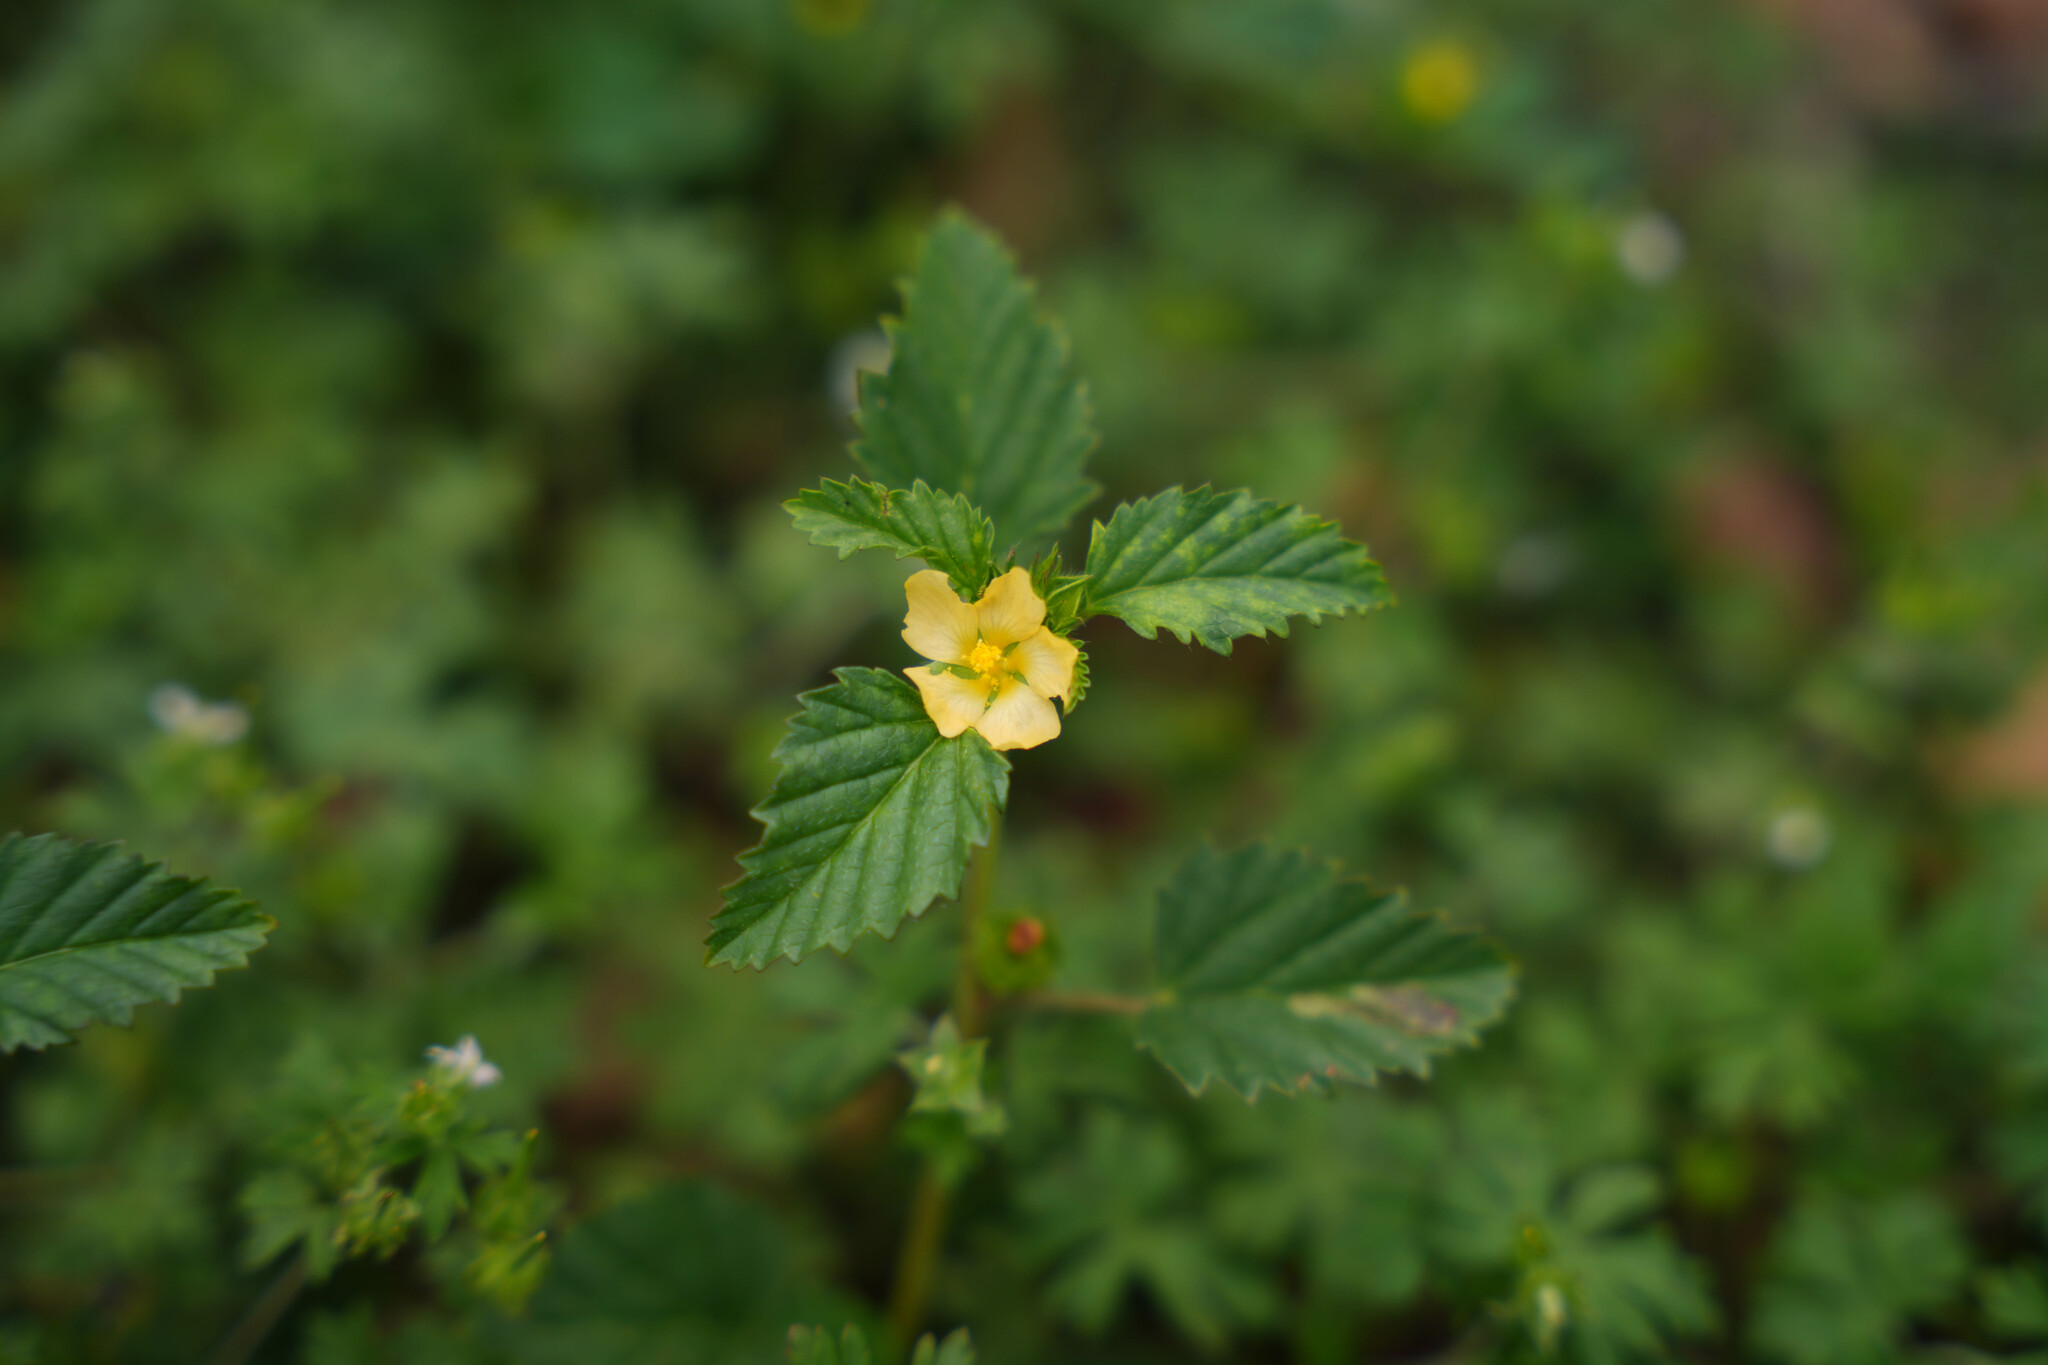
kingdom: Plantae
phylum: Tracheophyta
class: Magnoliopsida
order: Malvales
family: Malvaceae
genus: Malvastrum
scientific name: Malvastrum coromandelianum
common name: Threelobe false mallow
